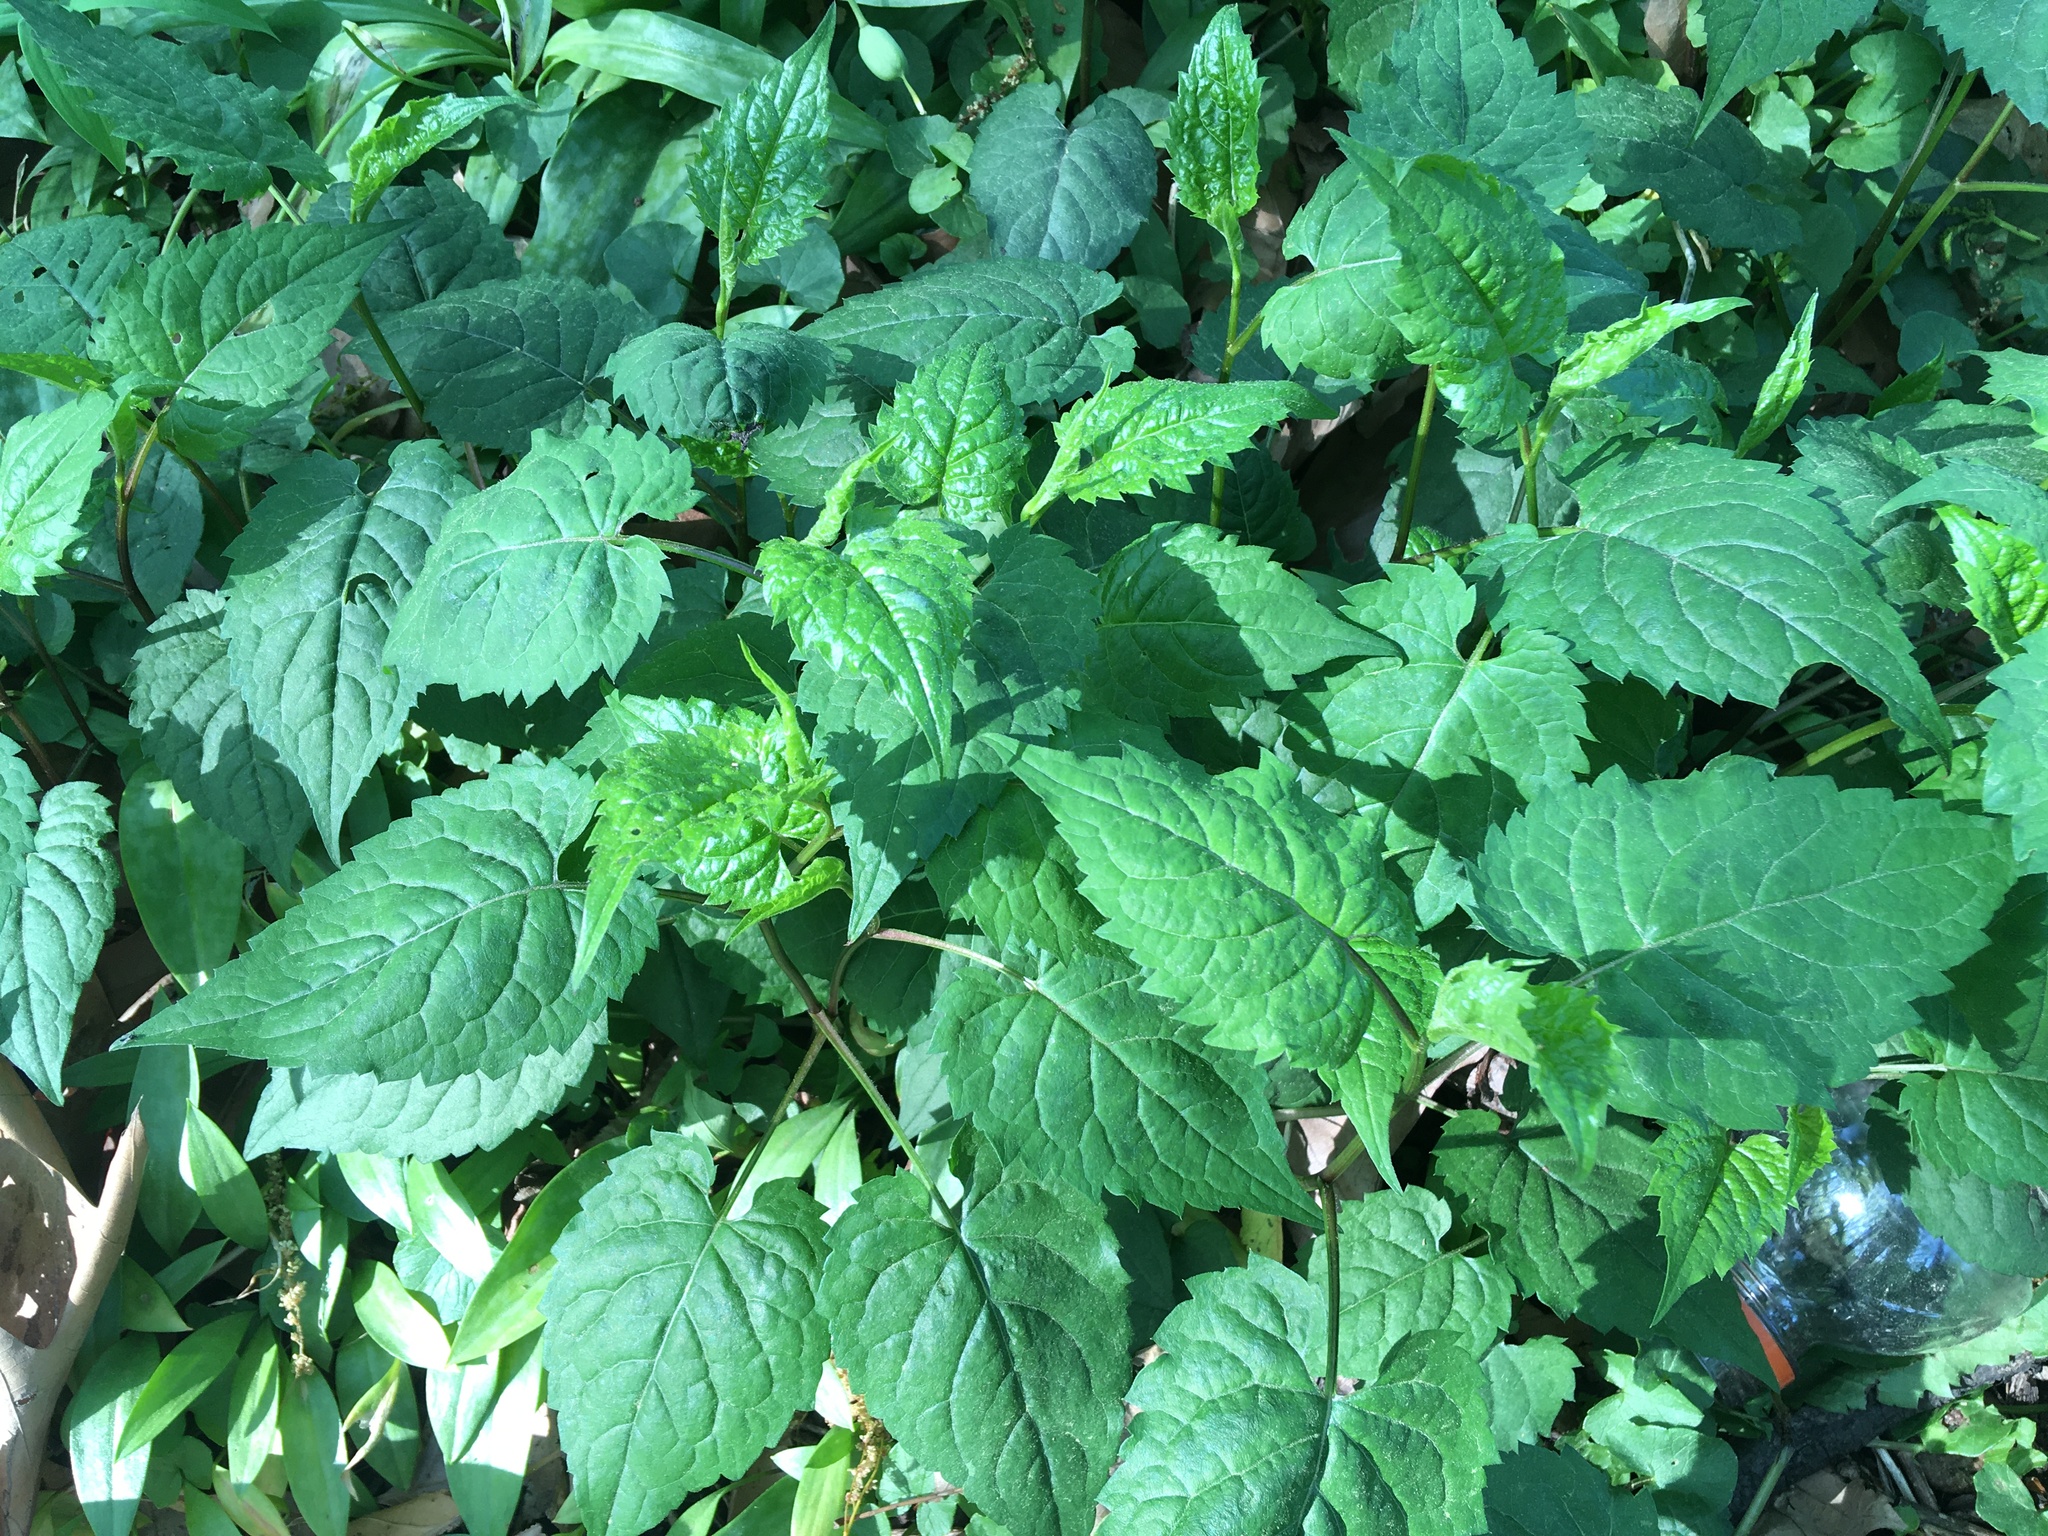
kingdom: Plantae
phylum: Tracheophyta
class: Magnoliopsida
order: Asterales
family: Asteraceae
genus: Eurybia
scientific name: Eurybia divaricata
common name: White wood aster
